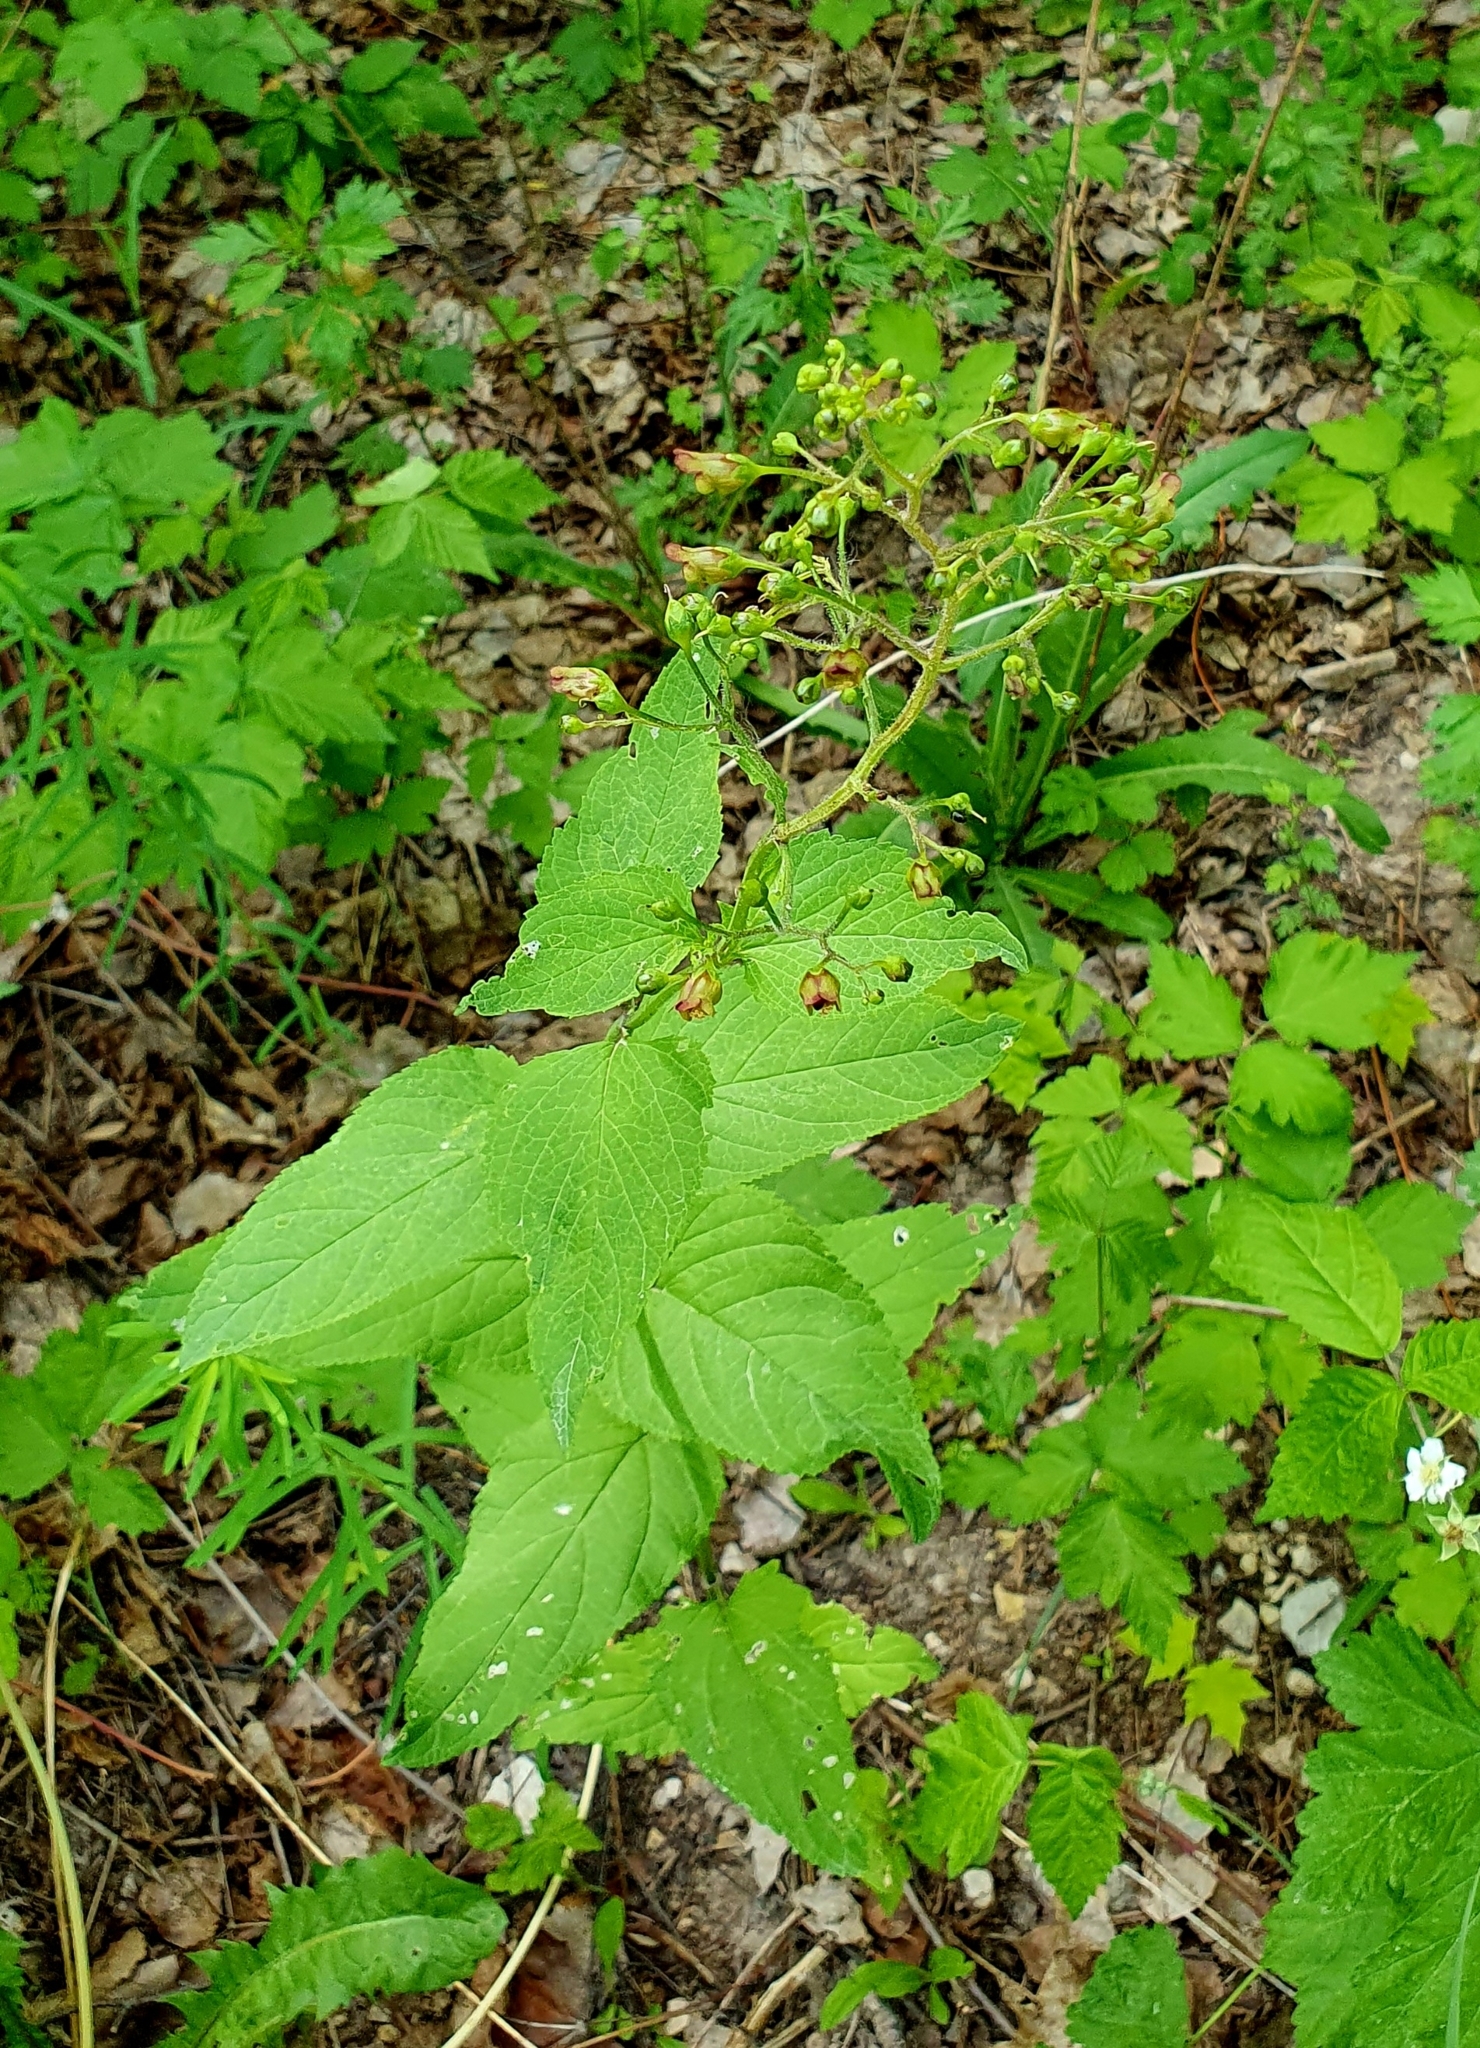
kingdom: Plantae
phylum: Tracheophyta
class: Magnoliopsida
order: Lamiales
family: Scrophulariaceae
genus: Scrophularia
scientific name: Scrophularia nodosa
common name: Common figwort
